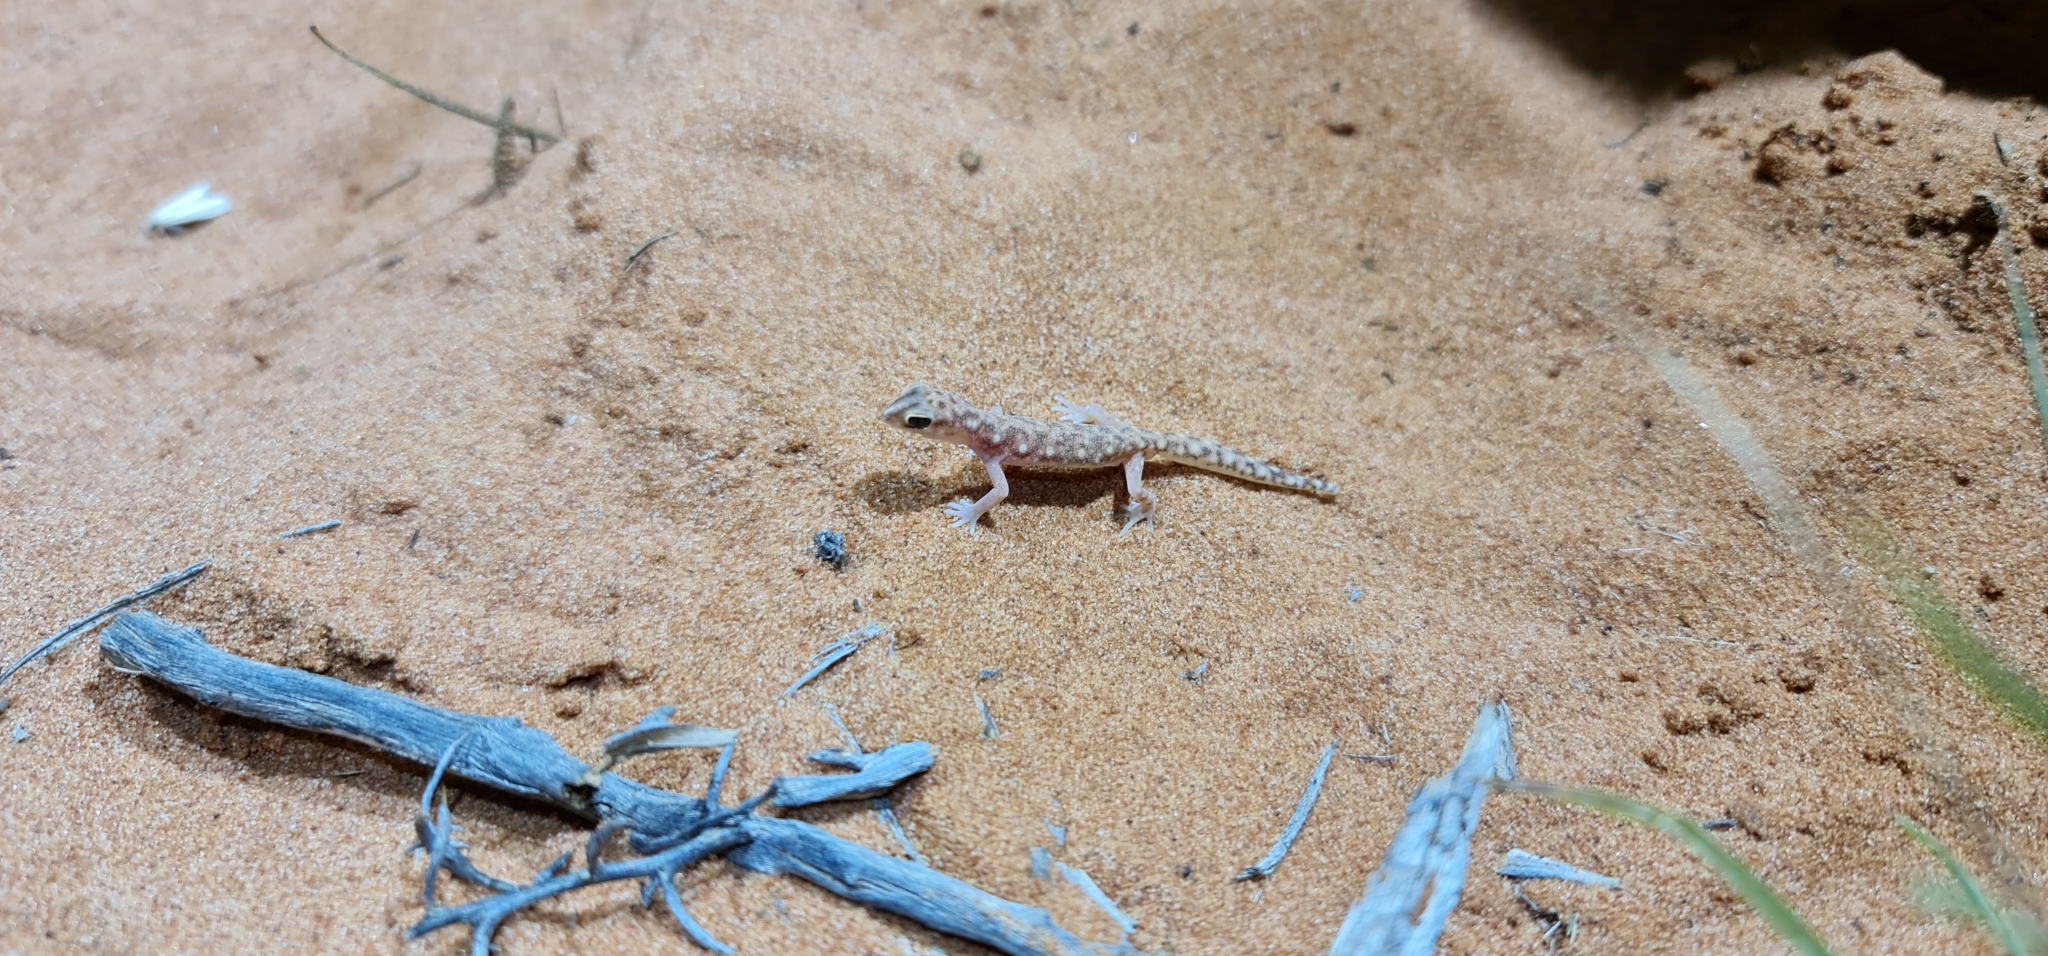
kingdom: Animalia
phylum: Chordata
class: Squamata
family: Diplodactylidae
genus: Rhynchoedura
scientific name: Rhynchoedura eyrensis
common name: Eyre basin beaked gecko
